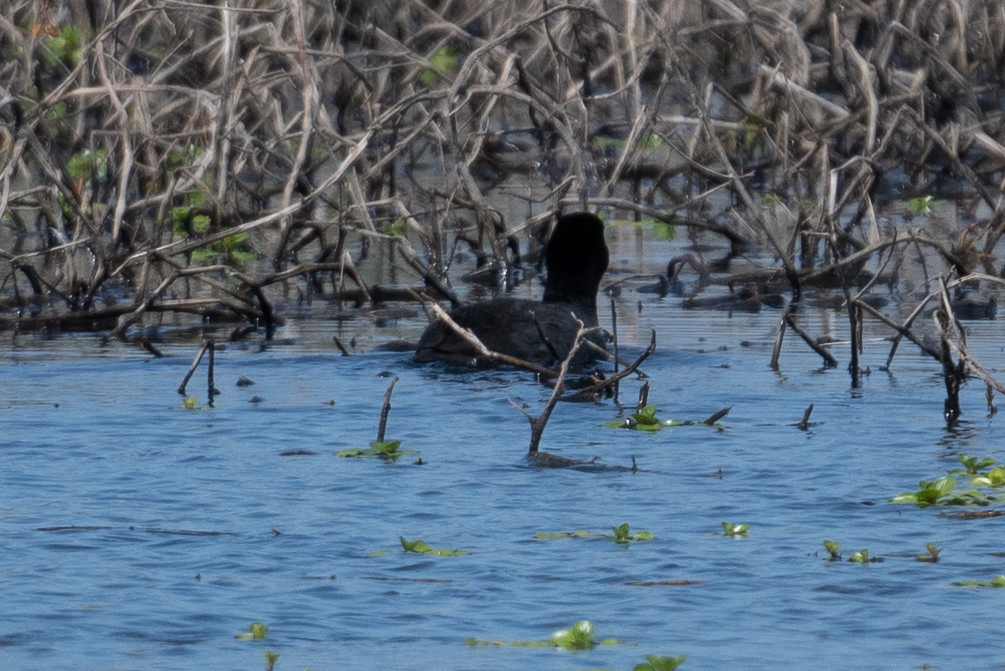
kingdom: Animalia
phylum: Chordata
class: Aves
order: Gruiformes
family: Rallidae
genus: Fulica
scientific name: Fulica americana
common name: American coot
